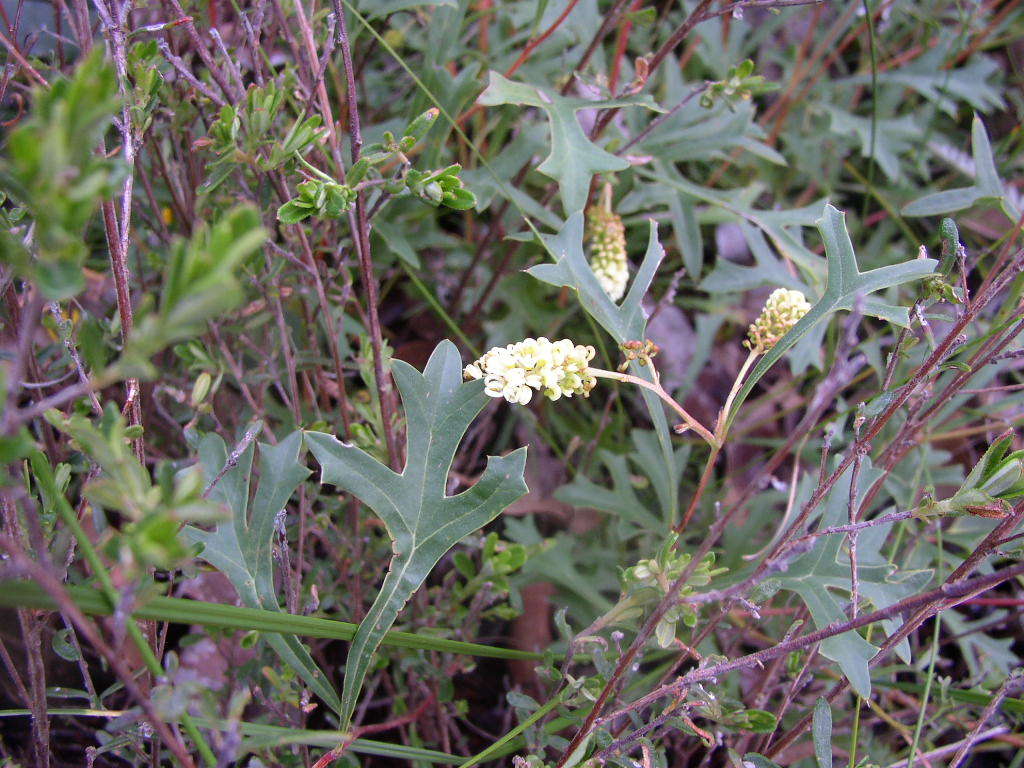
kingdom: Plantae
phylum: Tracheophyta
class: Magnoliopsida
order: Proteales
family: Proteaceae
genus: Grevillea
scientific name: Grevillea synaphea
